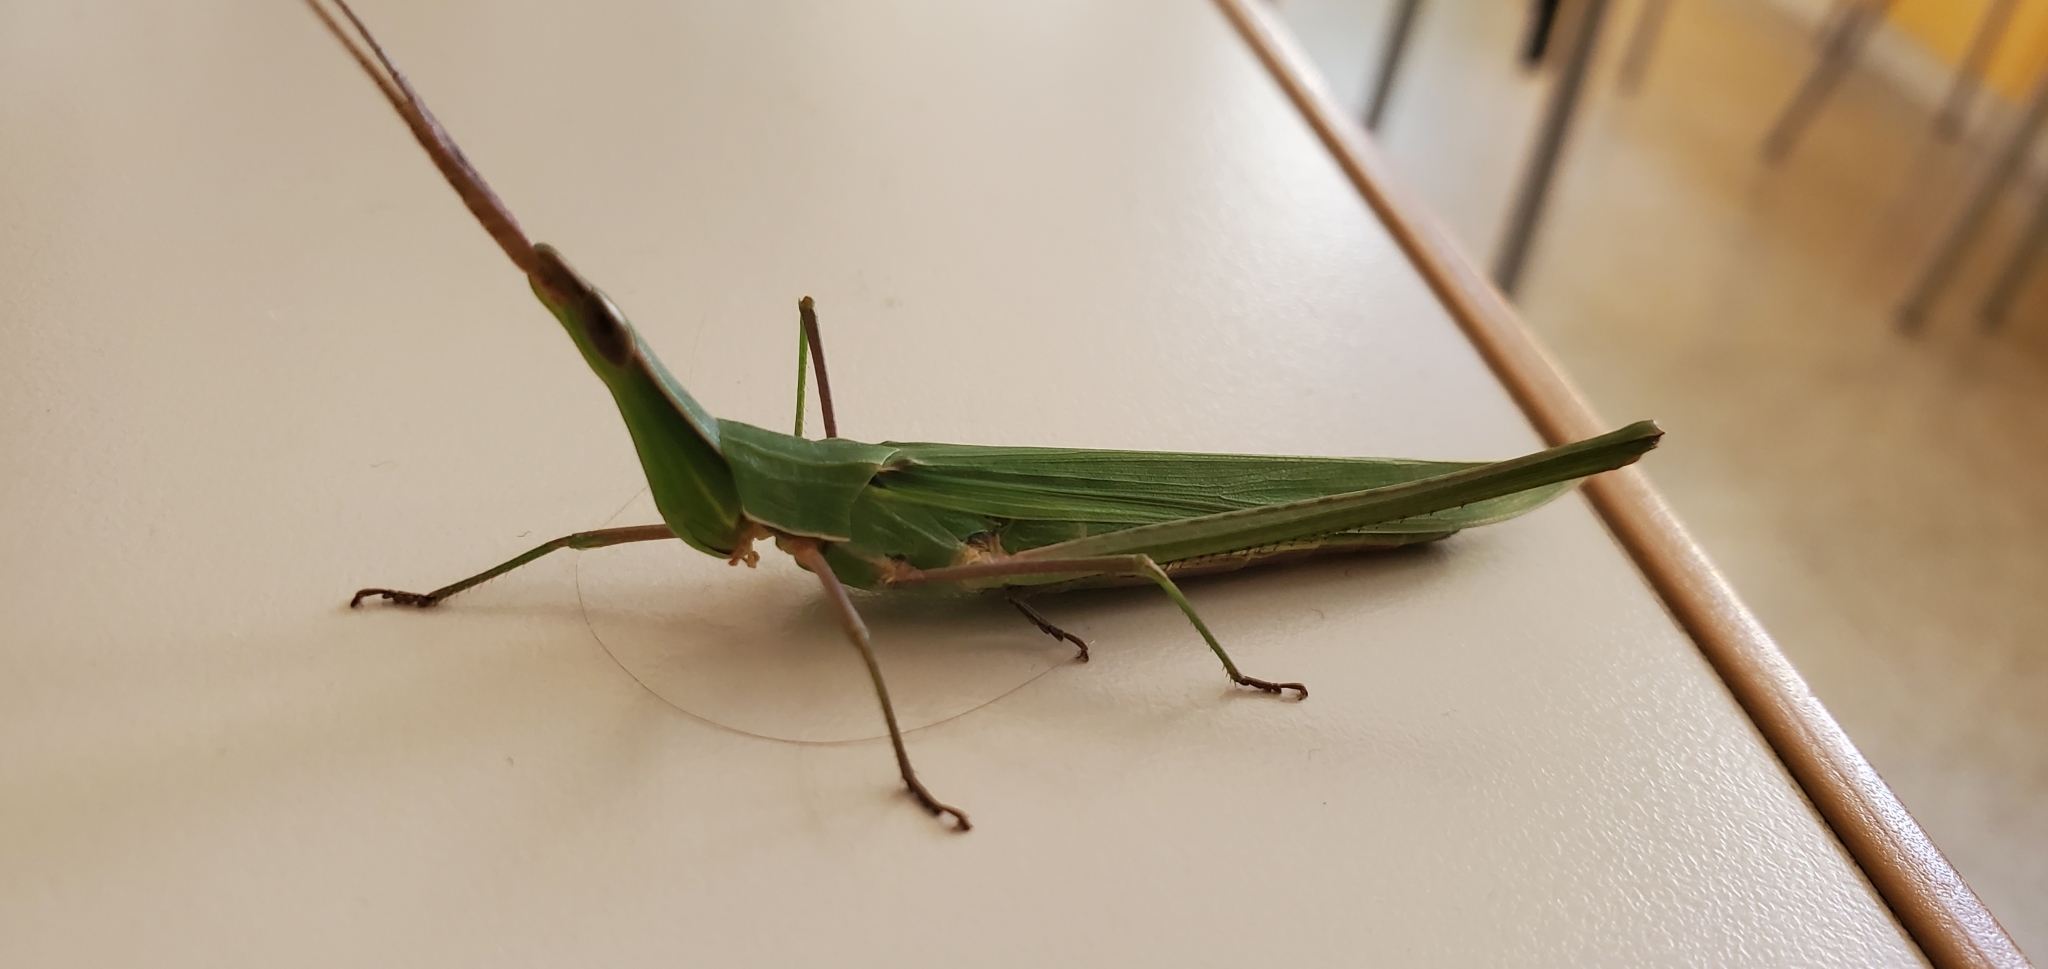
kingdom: Animalia
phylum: Arthropoda
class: Insecta
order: Orthoptera
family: Acrididae
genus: Acrida
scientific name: Acrida ungarica
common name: Common cone-headed grasshopper
